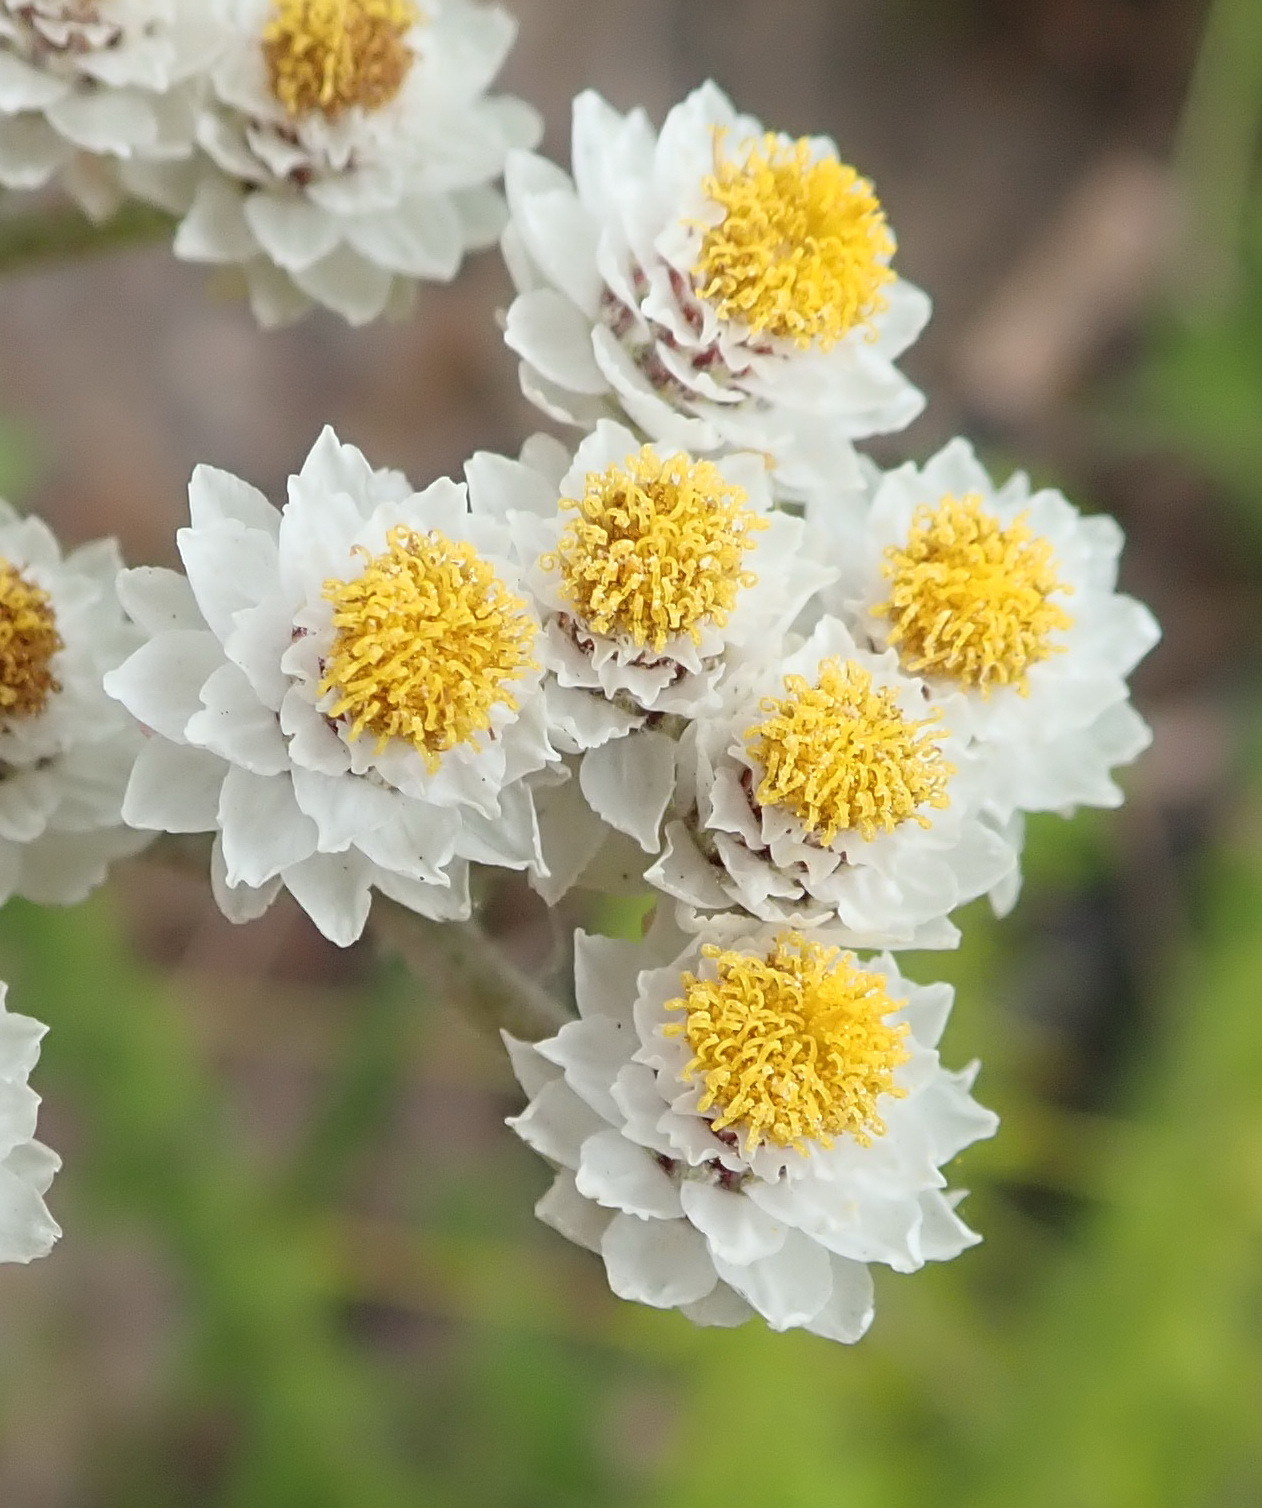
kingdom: Plantae
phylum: Tracheophyta
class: Magnoliopsida
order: Asterales
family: Asteraceae
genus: Helichrysum
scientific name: Helichrysum felinum
